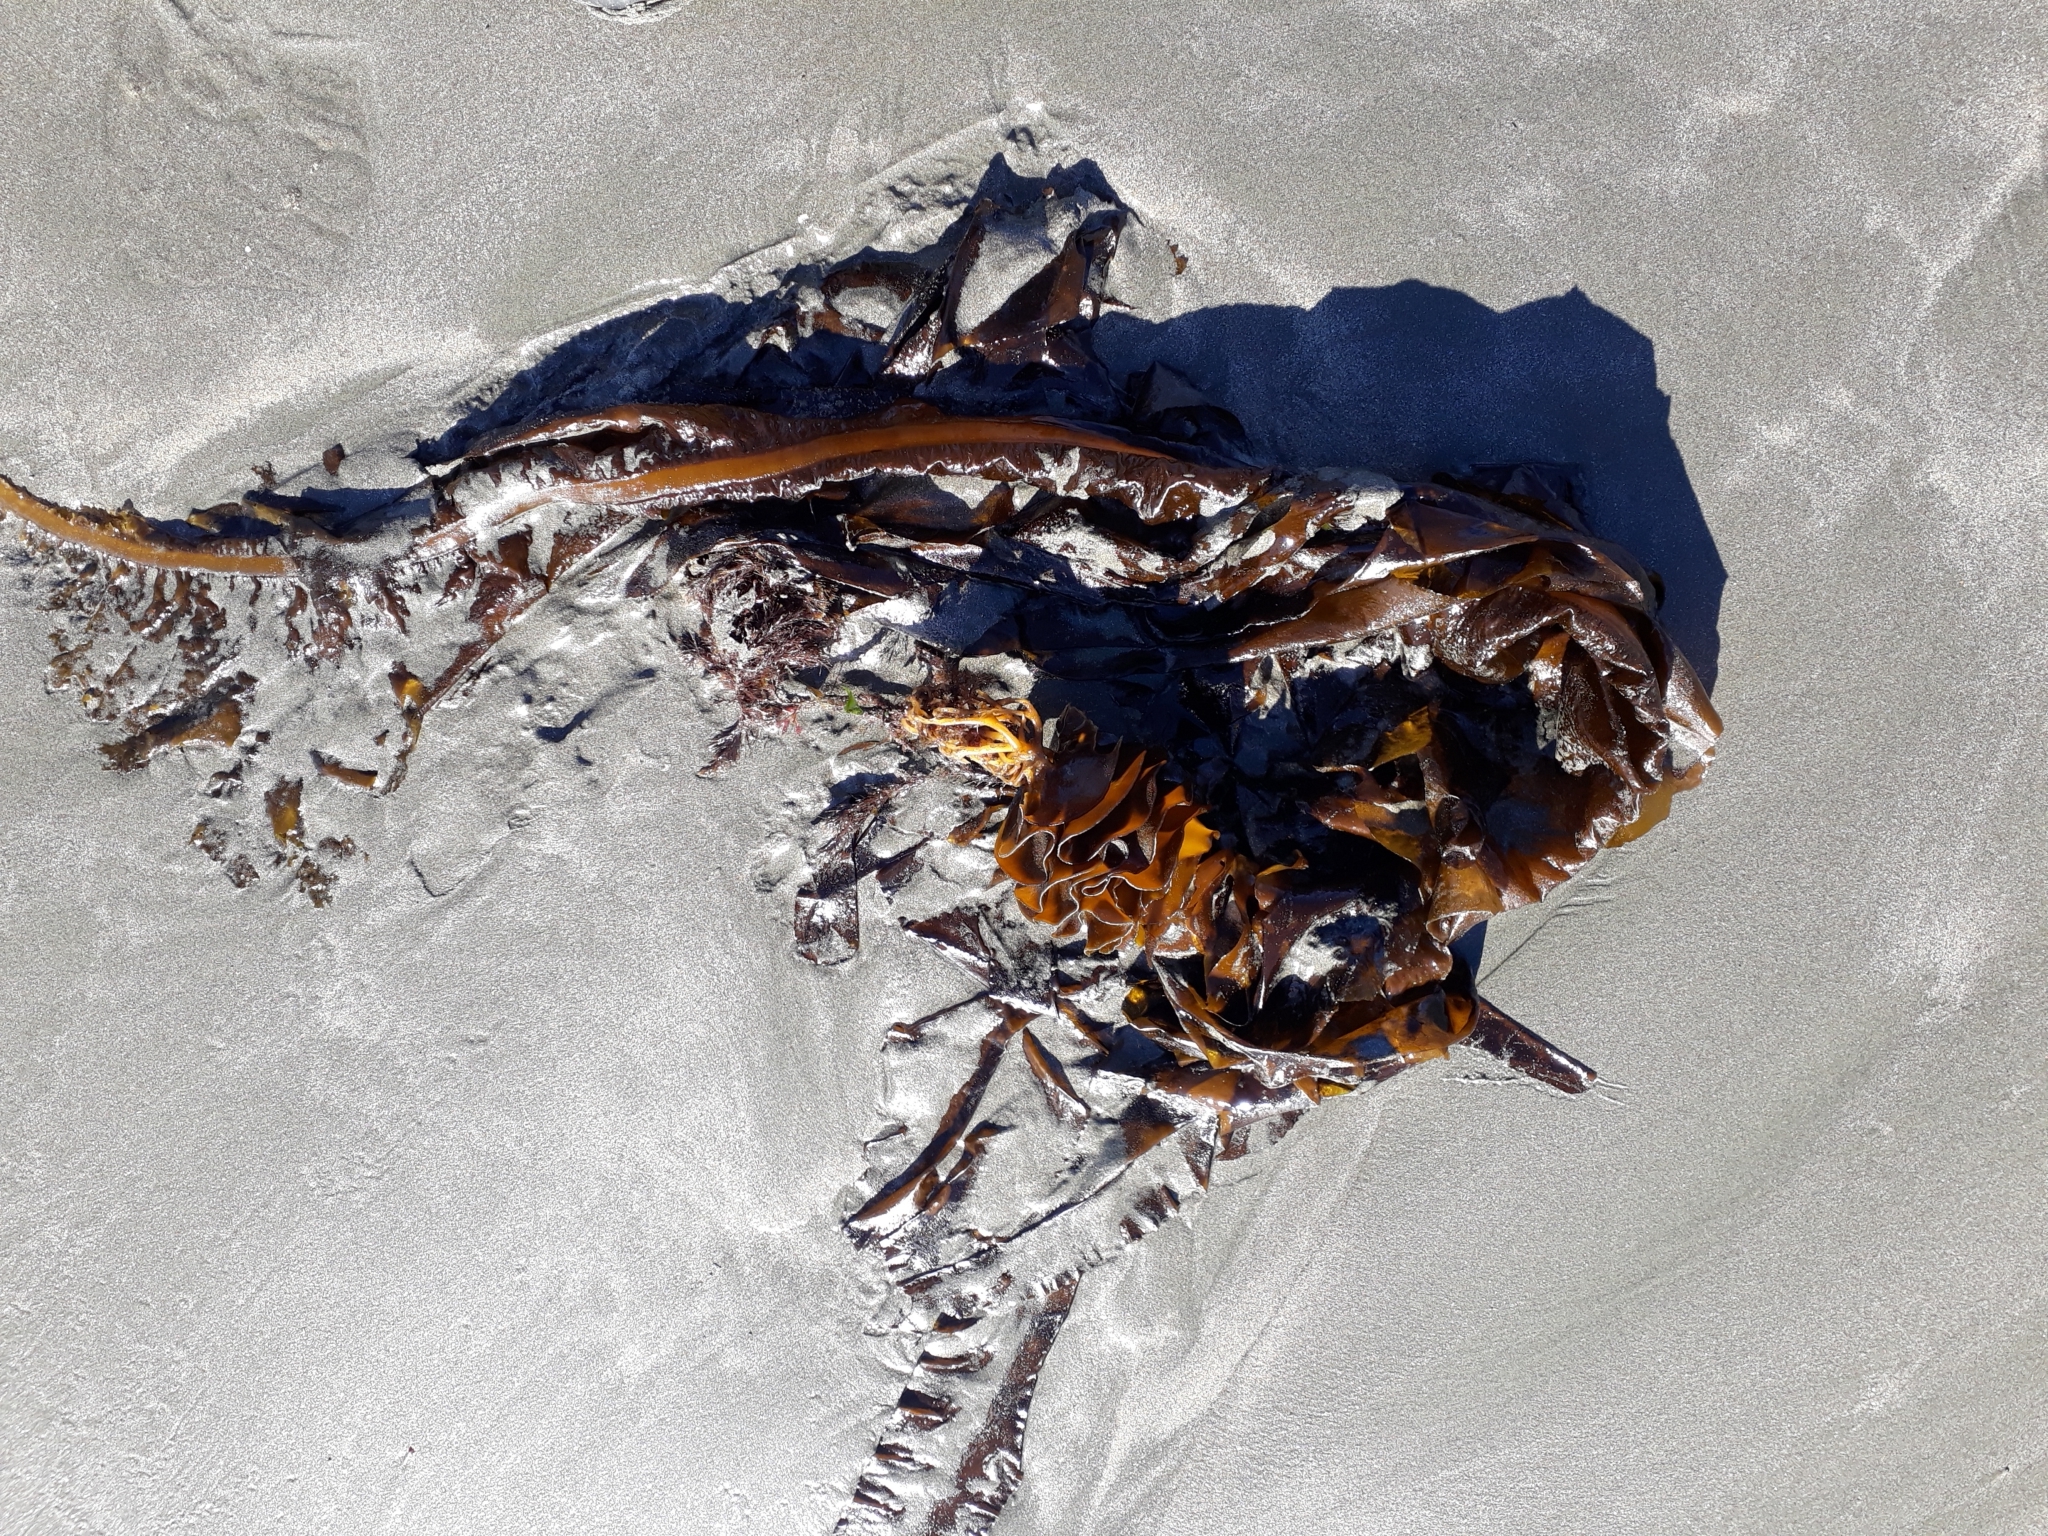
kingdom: Chromista
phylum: Ochrophyta
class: Phaeophyceae
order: Laminariales
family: Alariaceae
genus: Undaria
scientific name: Undaria pinnatifida
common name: Asian kelp
